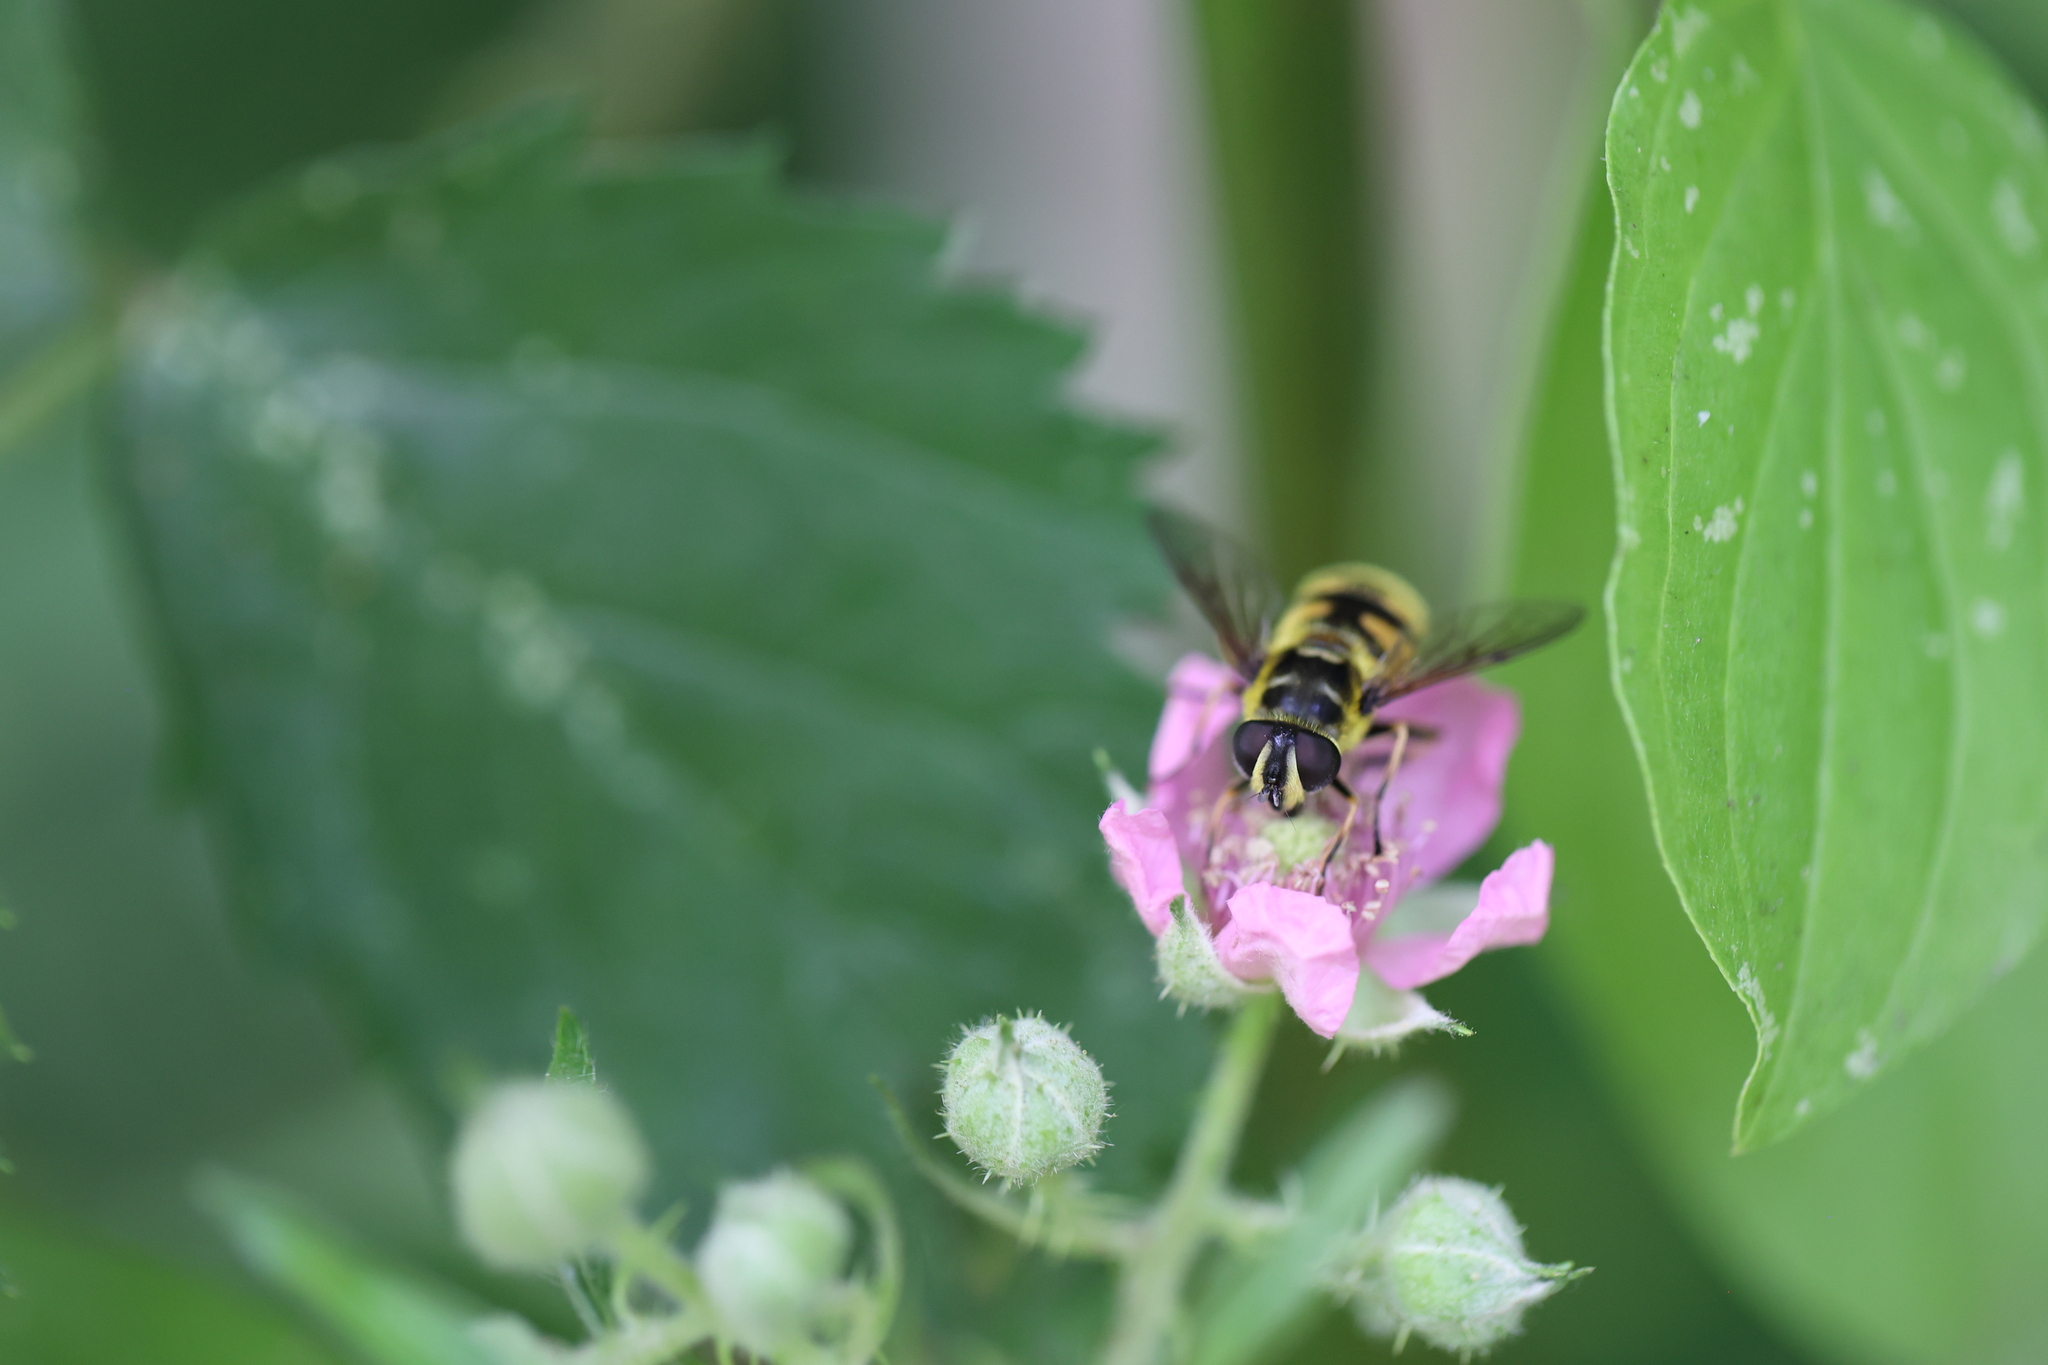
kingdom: Animalia
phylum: Arthropoda
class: Insecta
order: Diptera
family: Syrphidae
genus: Myathropa
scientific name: Myathropa florea
